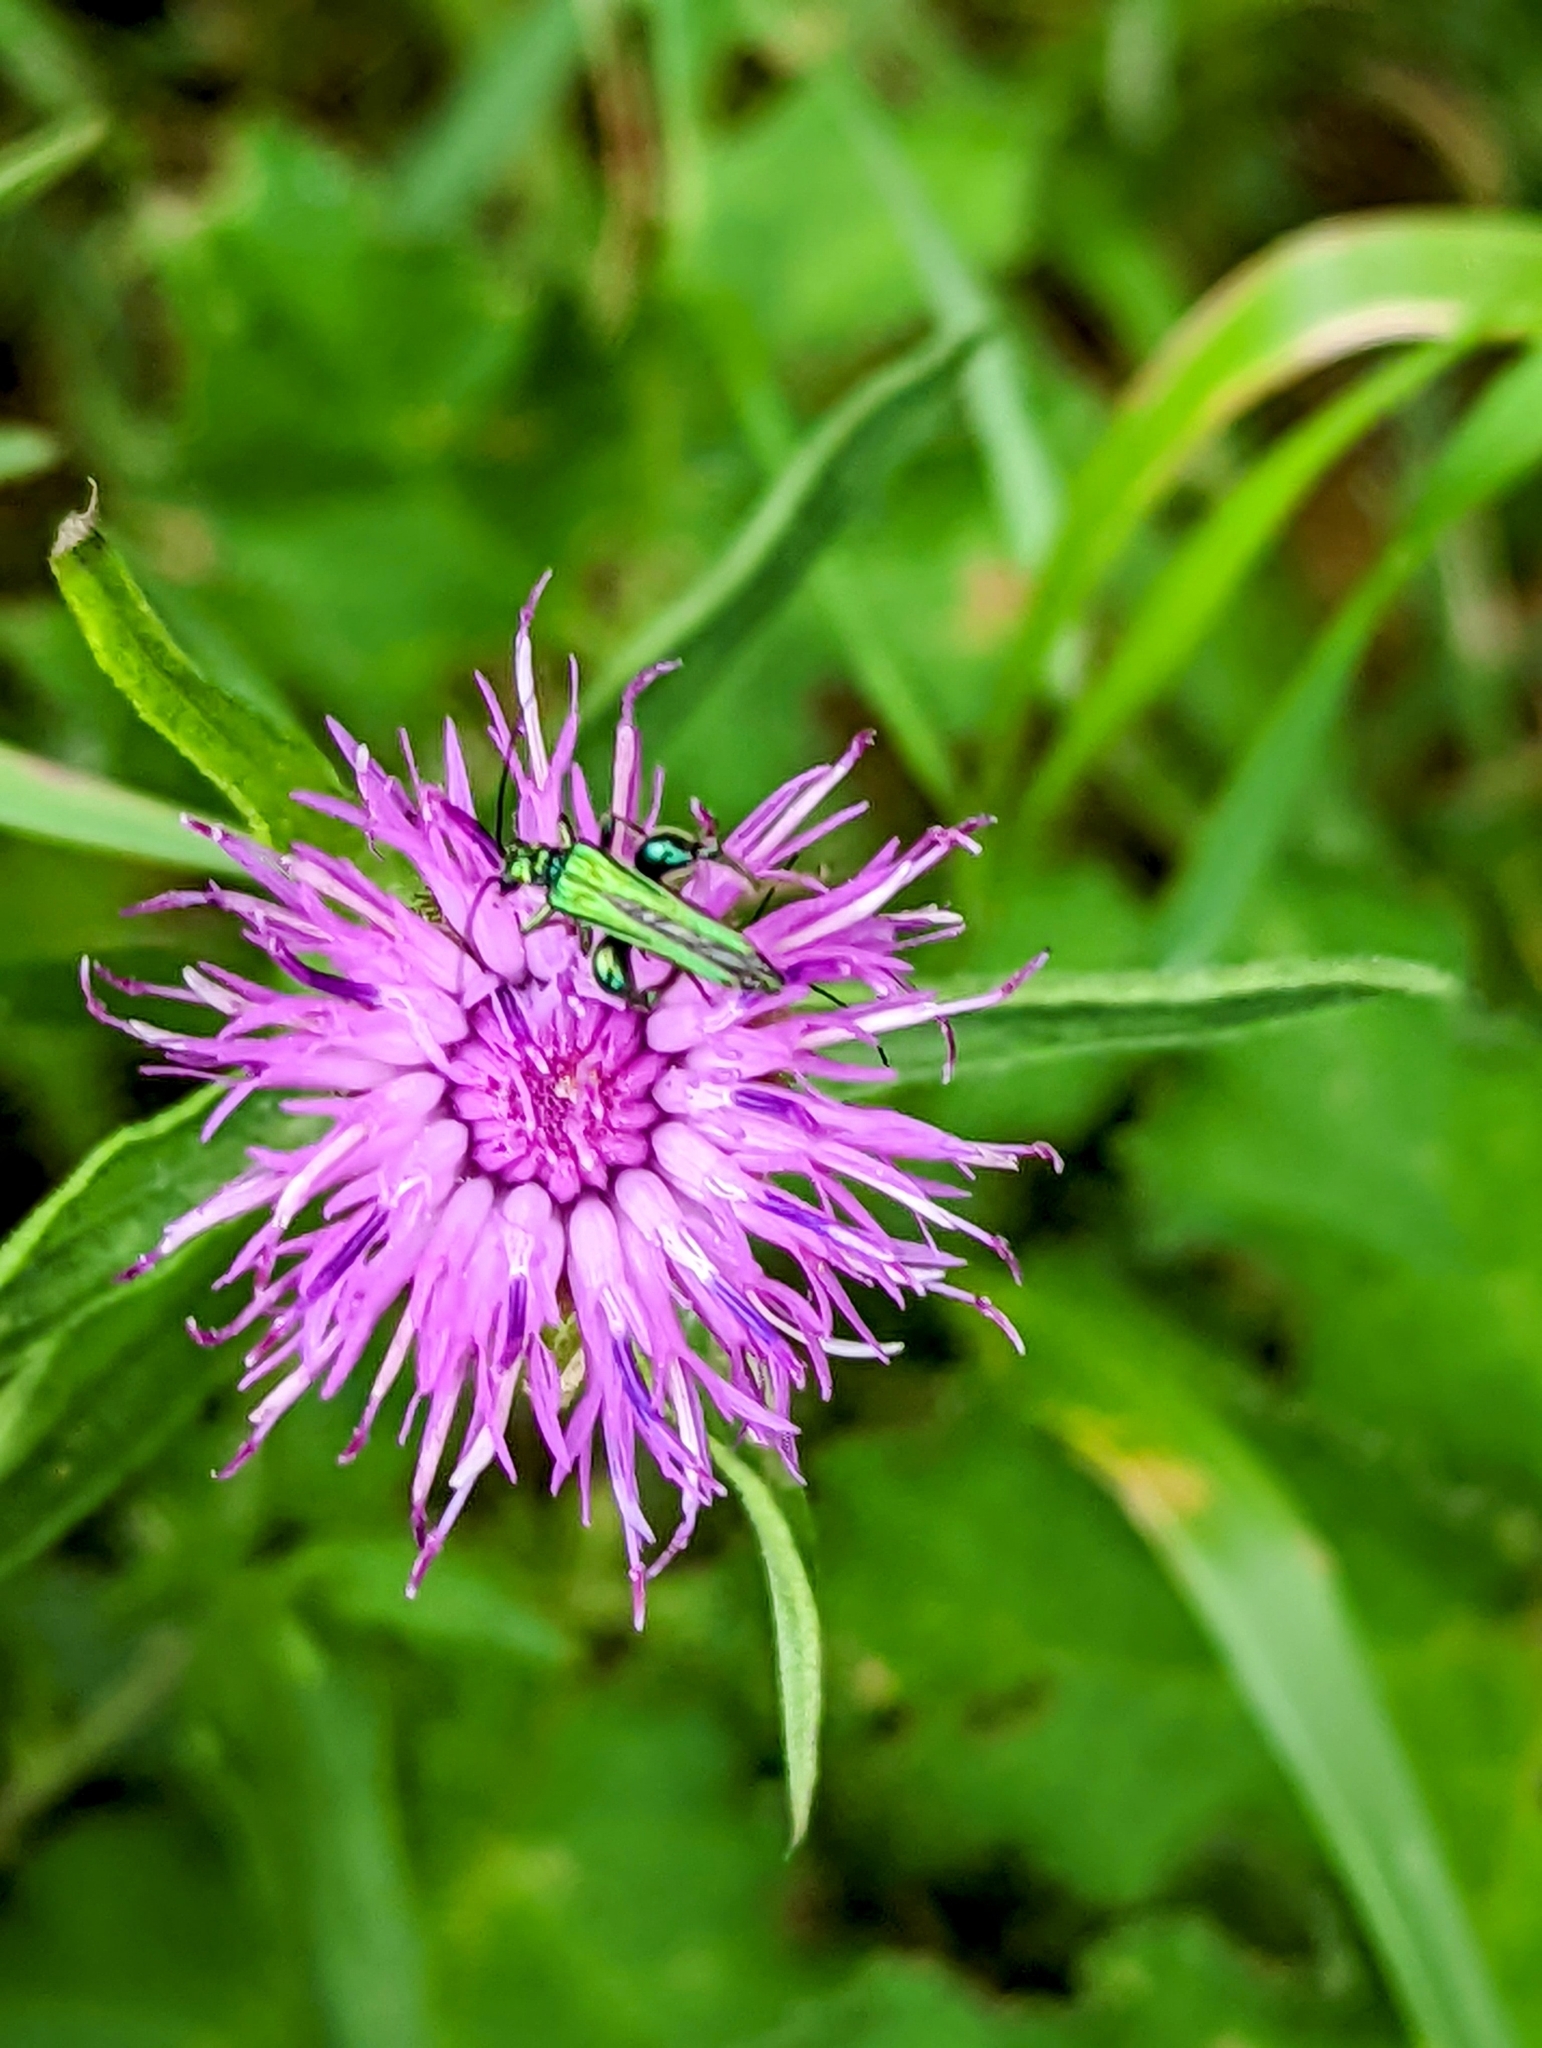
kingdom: Animalia
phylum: Arthropoda
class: Insecta
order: Coleoptera
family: Oedemeridae
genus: Oedemera
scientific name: Oedemera nobilis
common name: Swollen-thighed beetle
